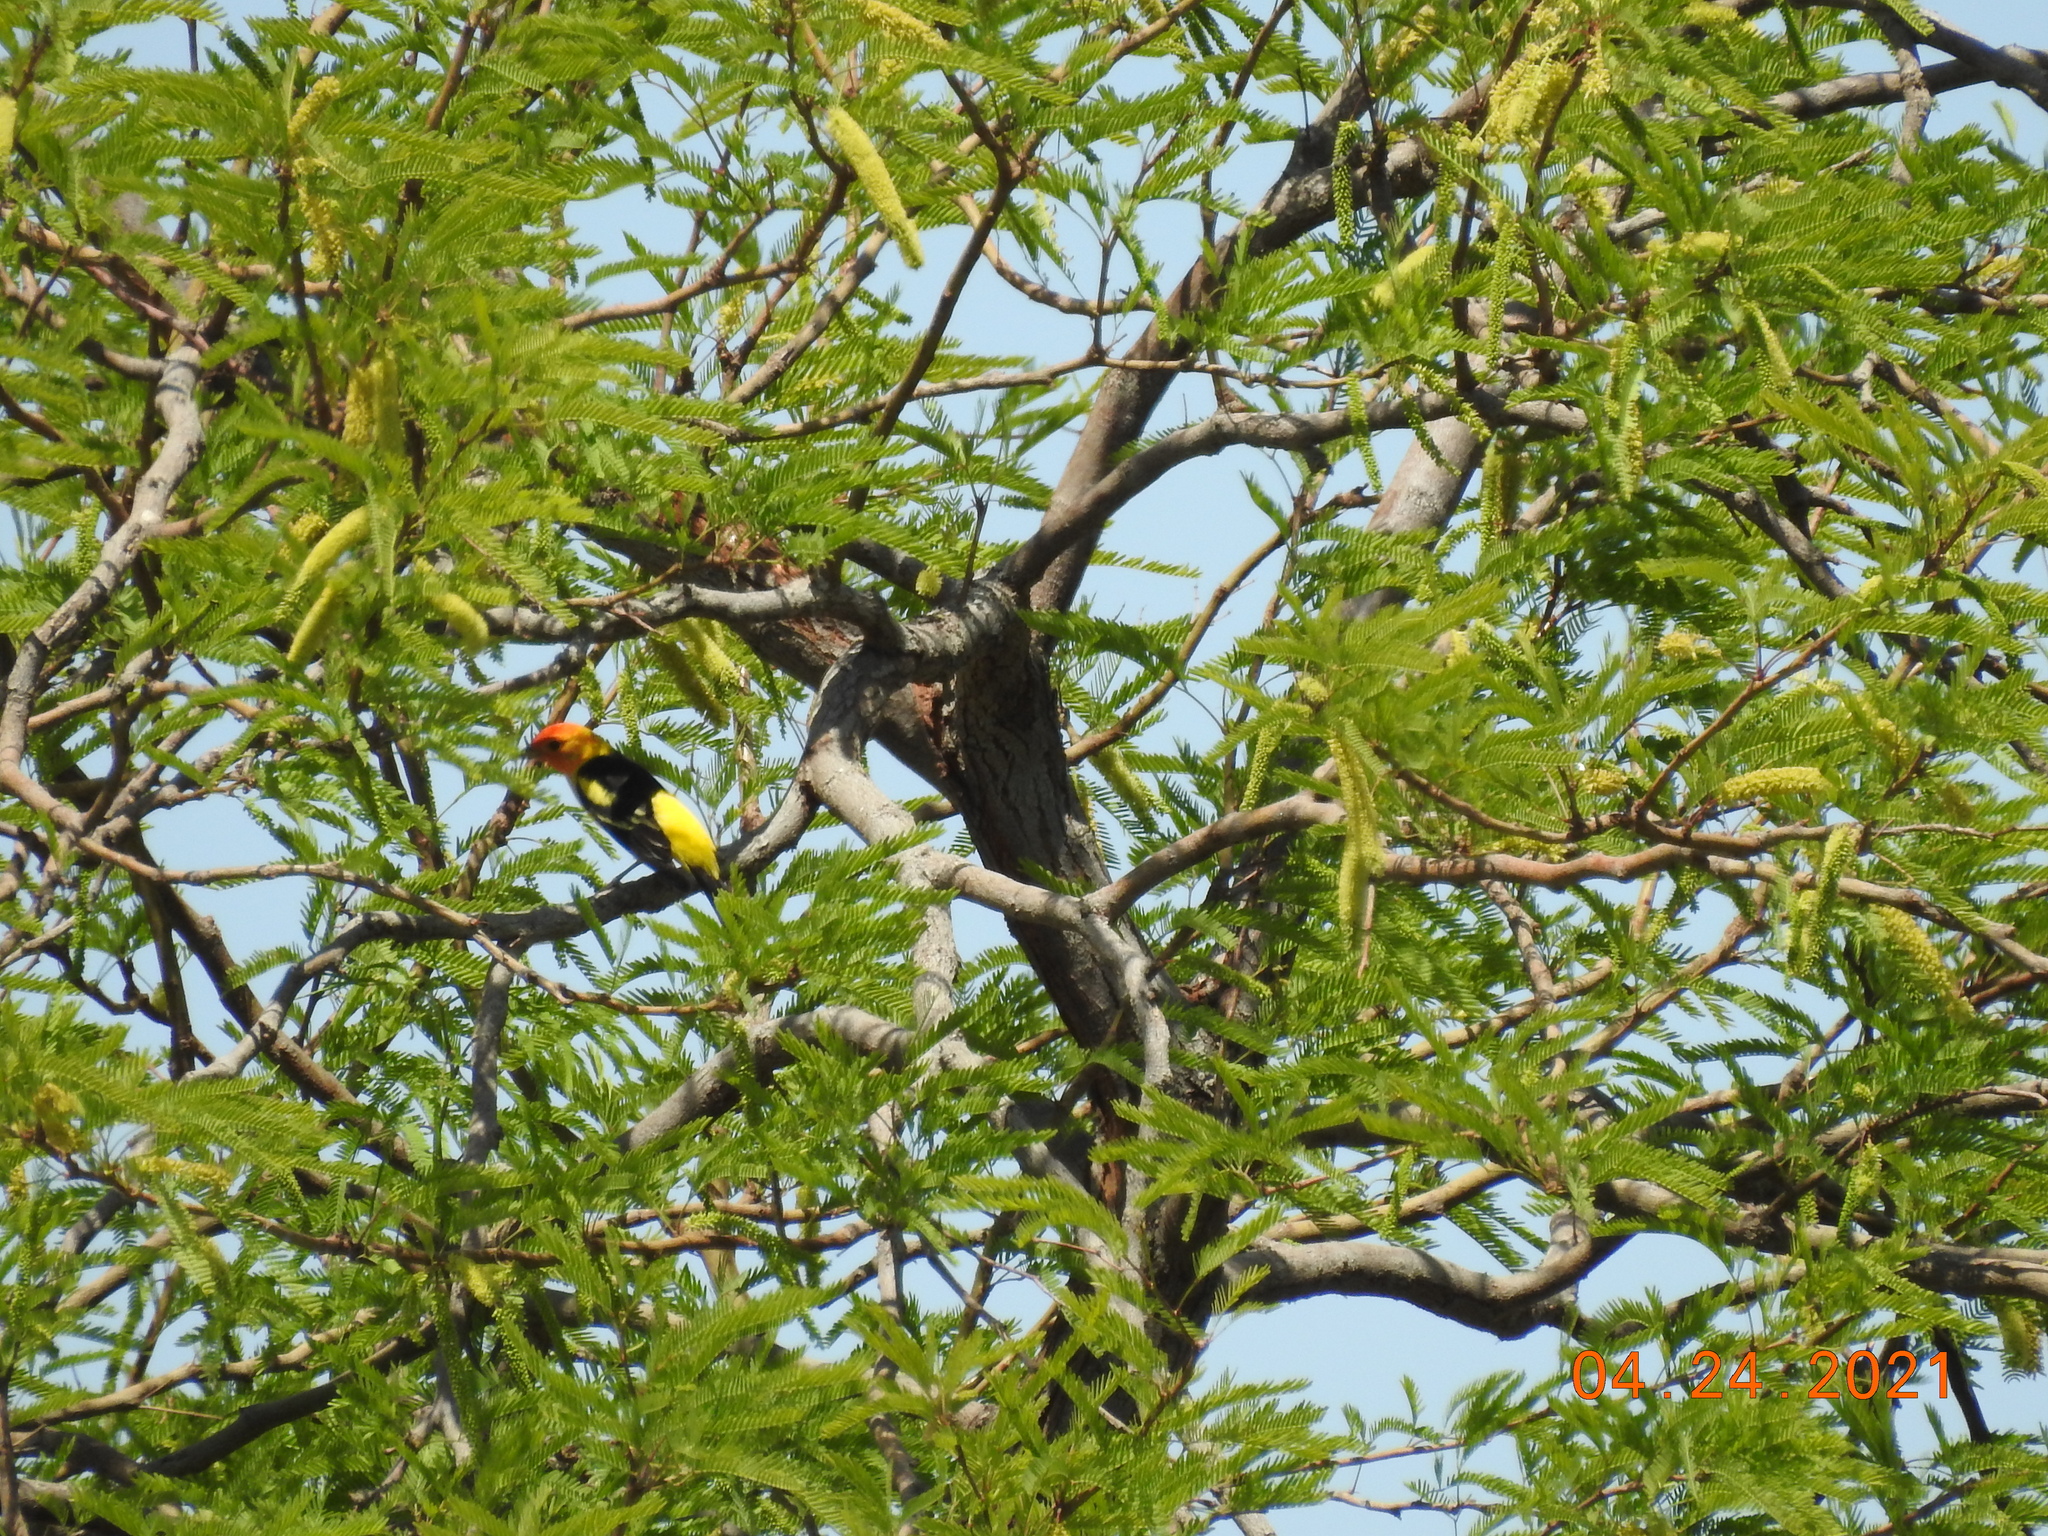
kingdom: Animalia
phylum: Chordata
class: Aves
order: Passeriformes
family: Cardinalidae
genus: Piranga
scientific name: Piranga ludoviciana
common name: Western tanager
